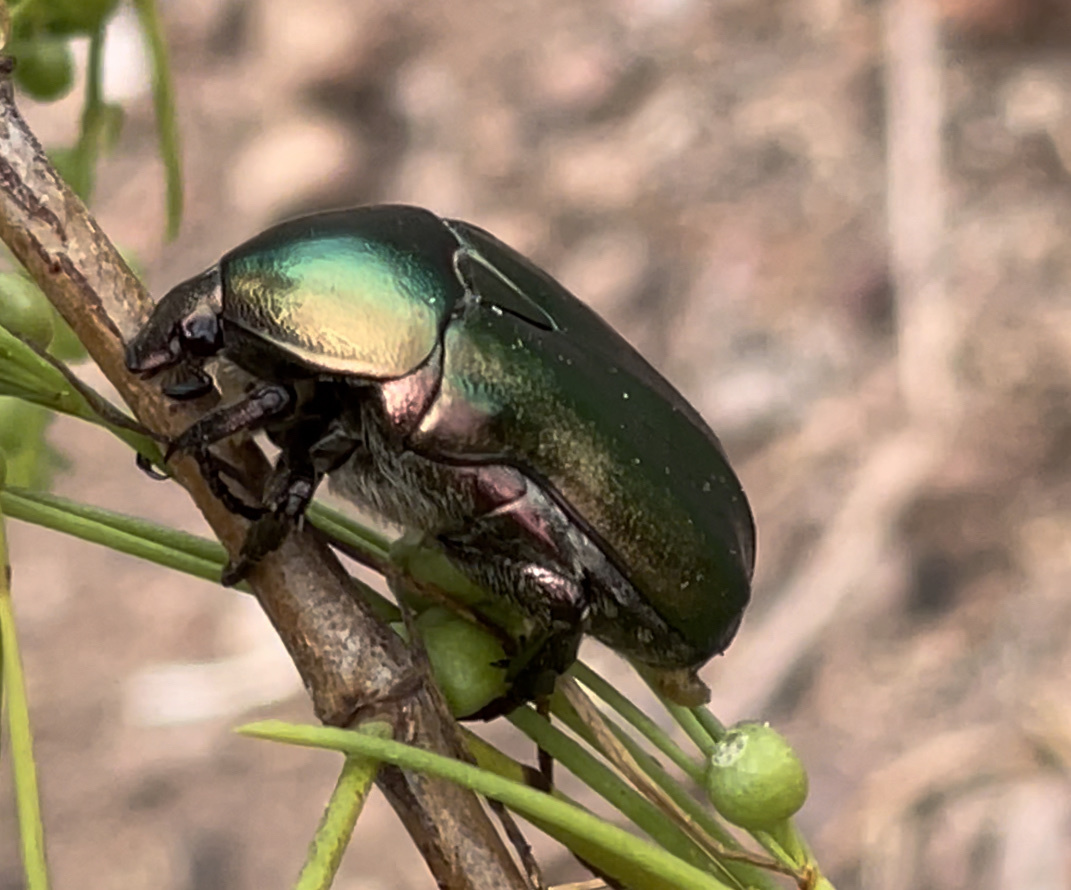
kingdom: Animalia
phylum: Arthropoda
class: Insecta
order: Coleoptera
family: Scarabaeidae
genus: Protaetia
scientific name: Protaetia cuprea
